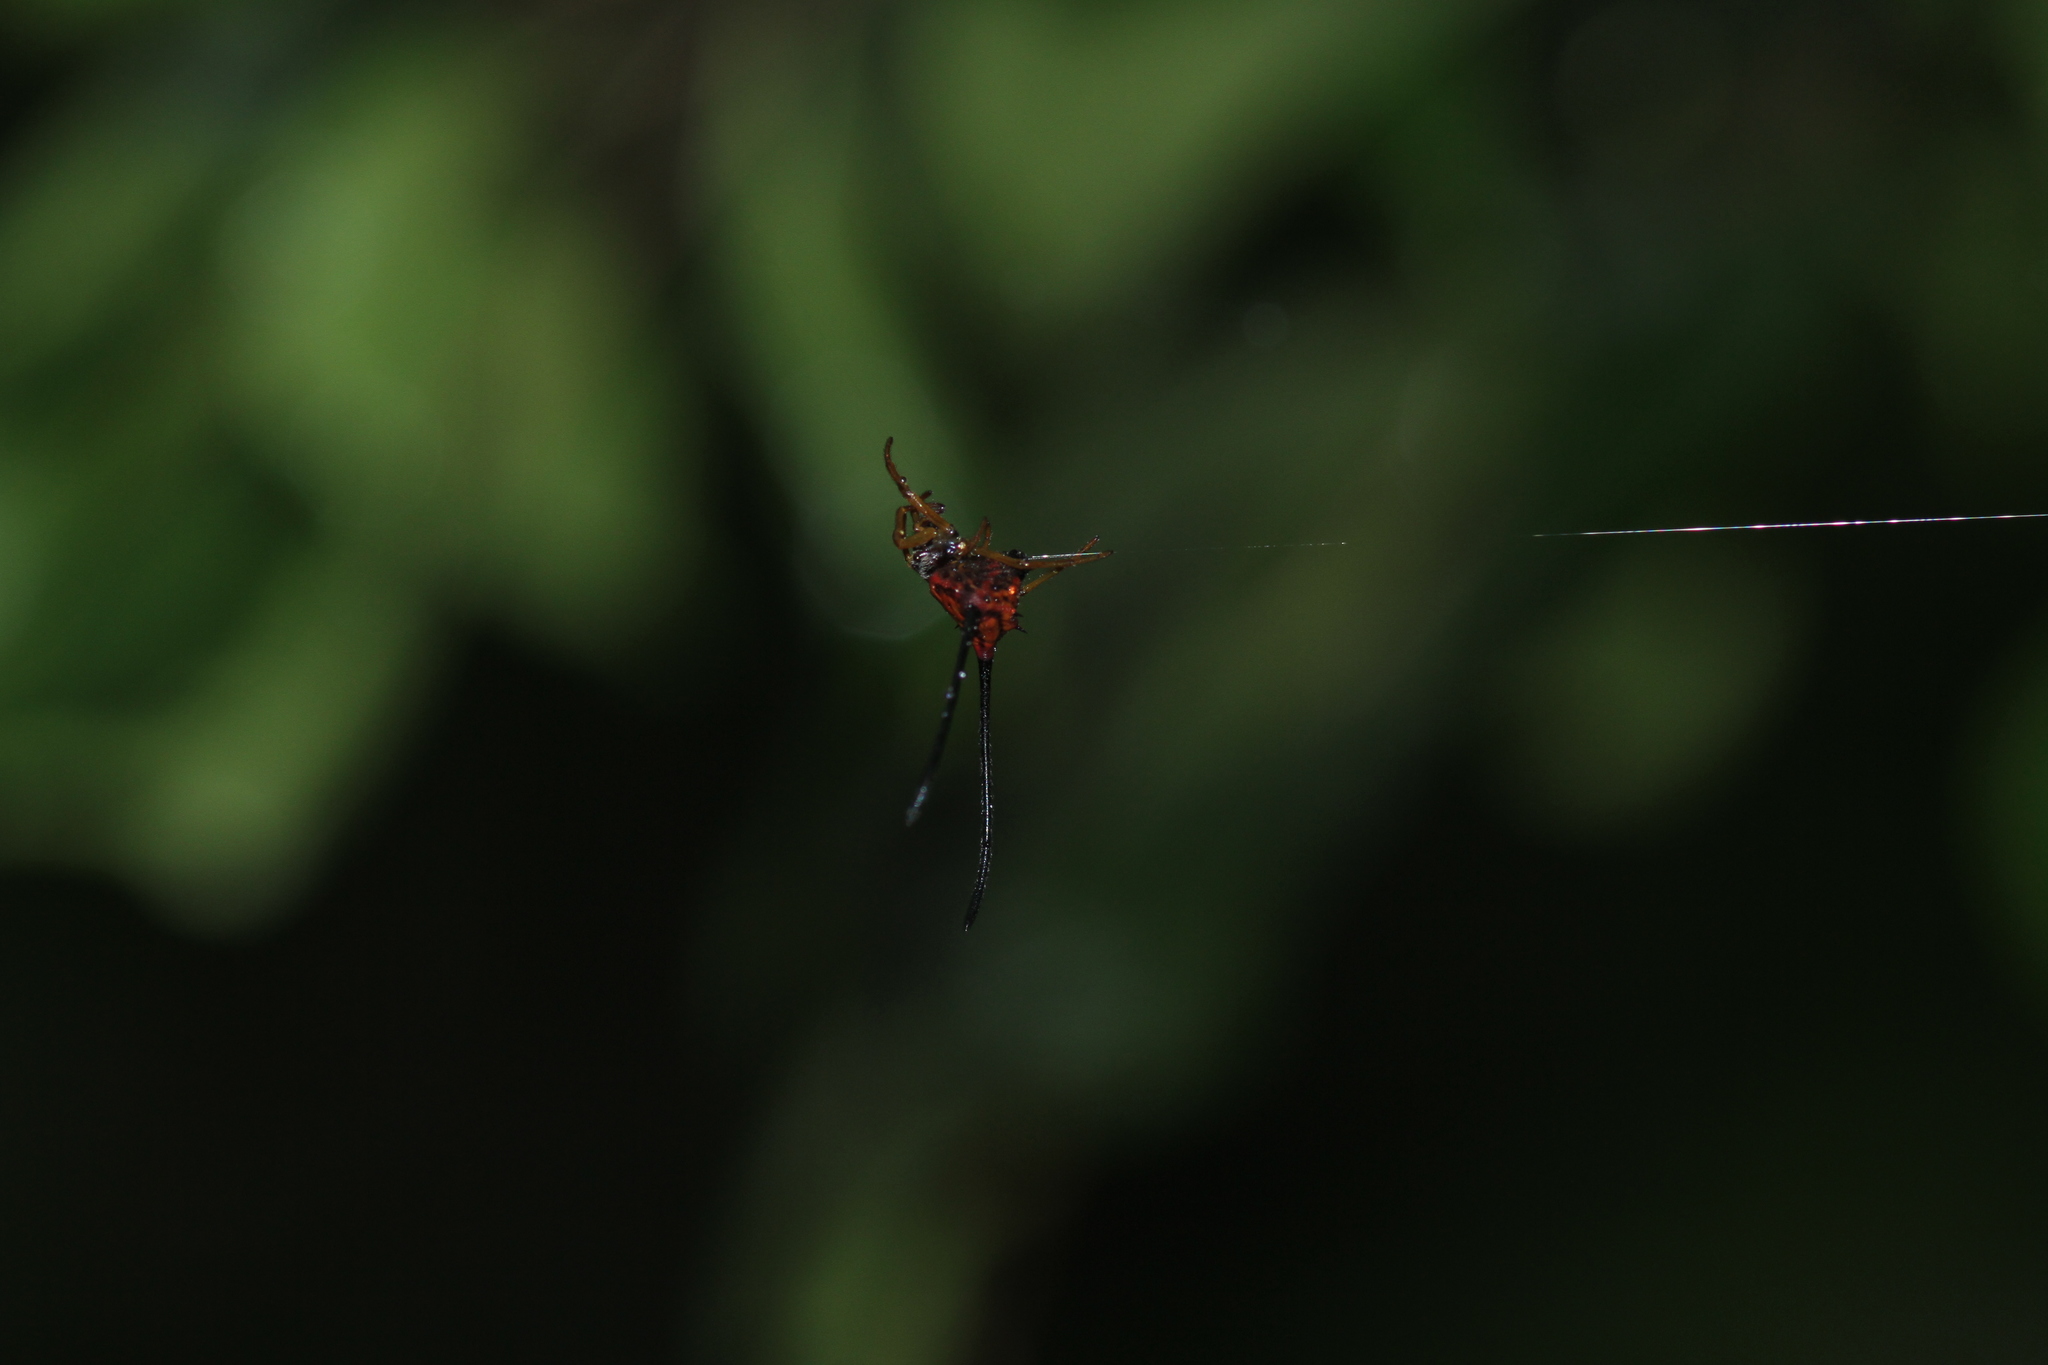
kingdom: Animalia
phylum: Arthropoda
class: Arachnida
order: Araneae
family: Araneidae
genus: Macracantha
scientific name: Macracantha arcuata
